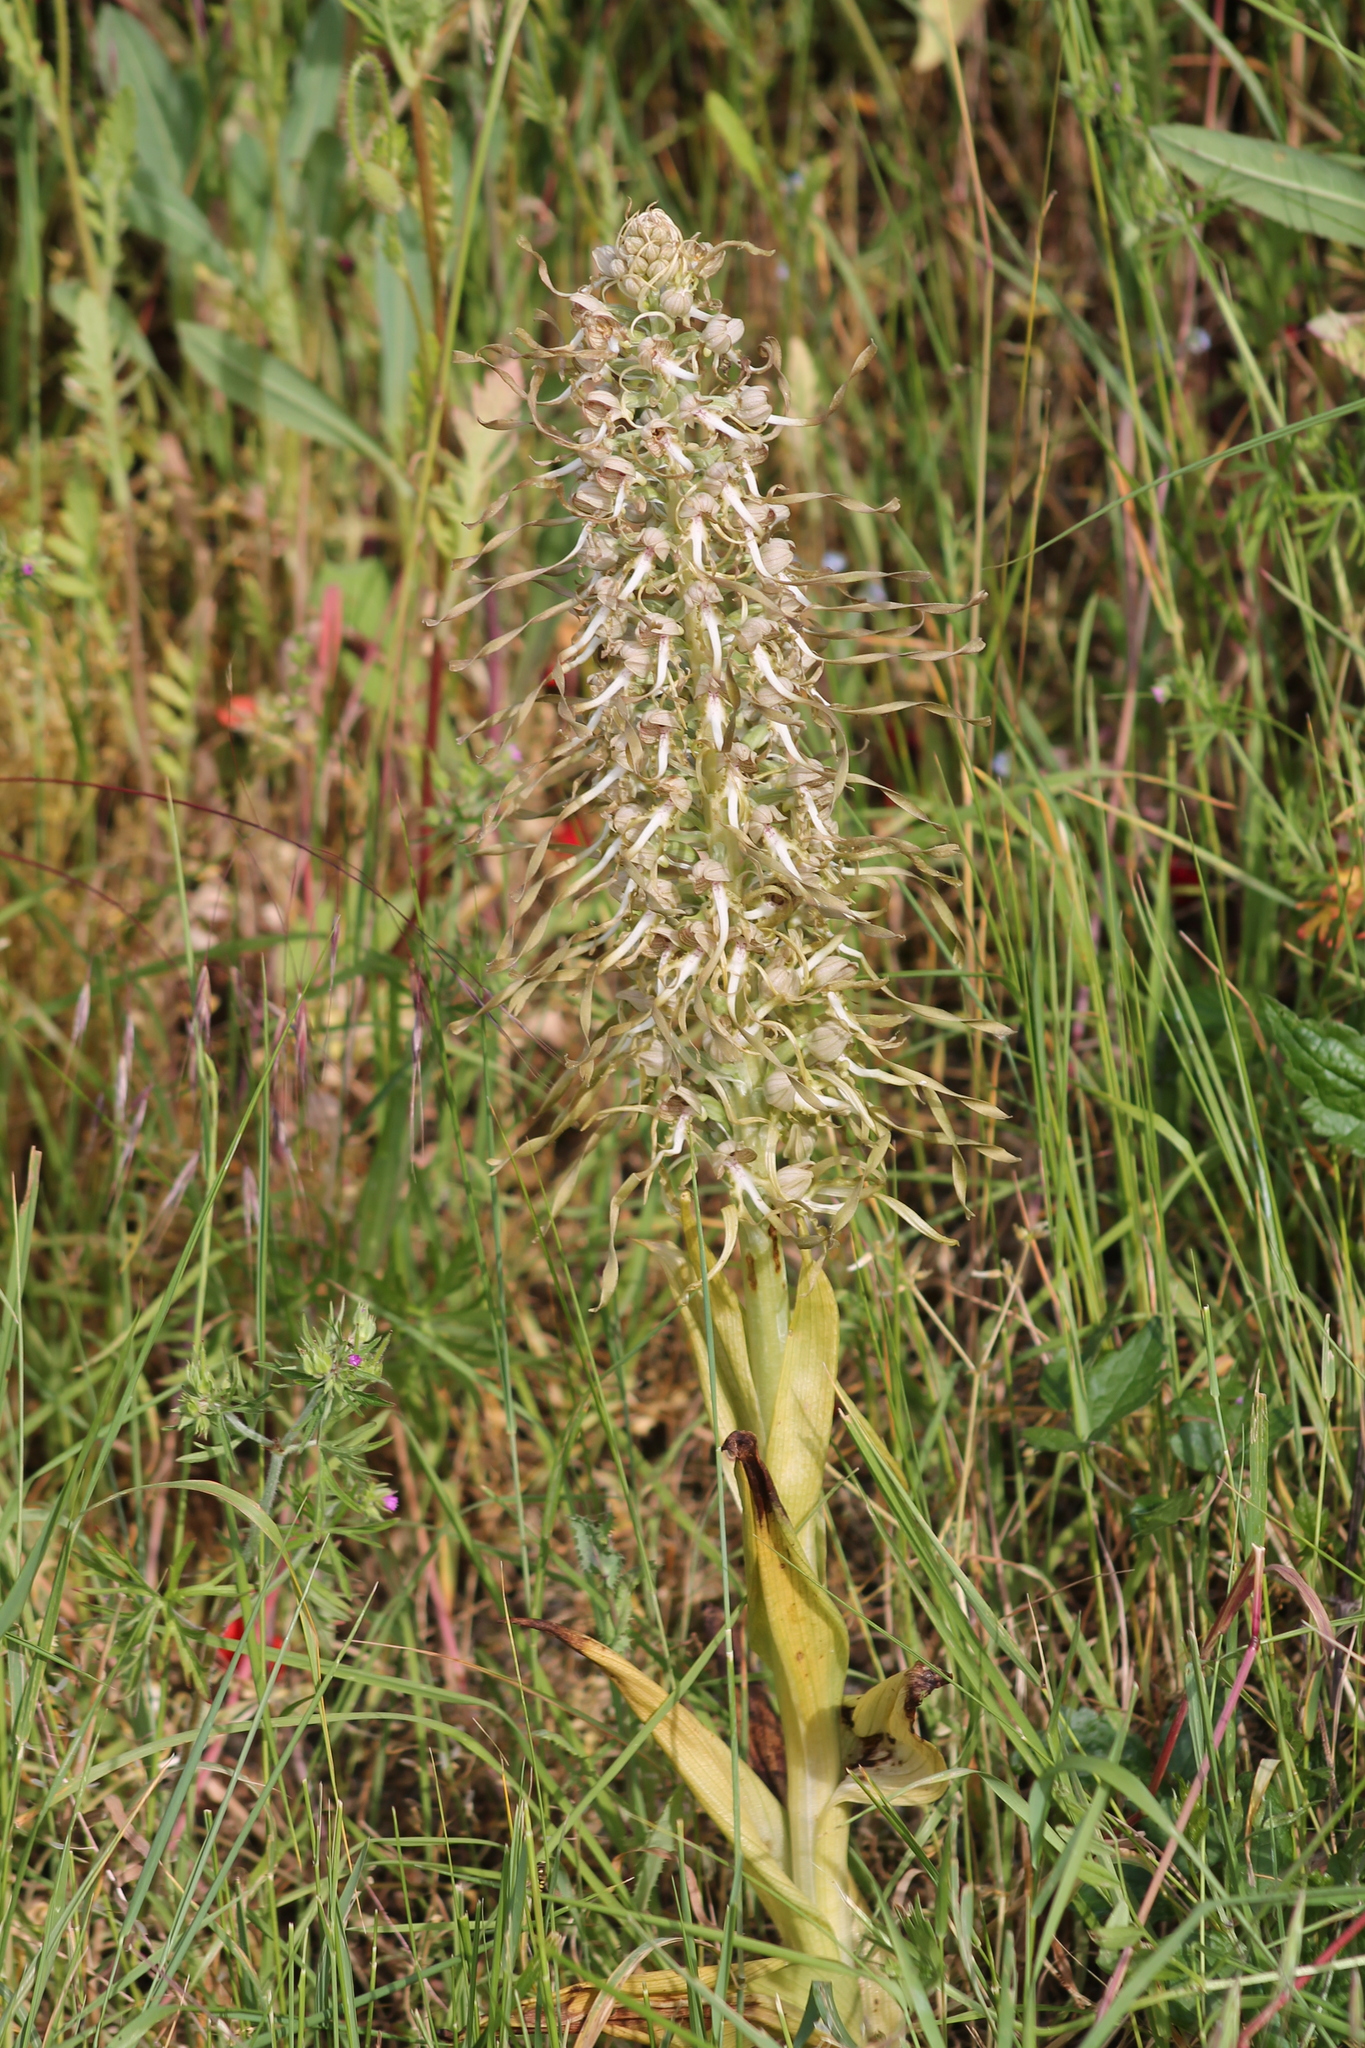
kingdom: Plantae
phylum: Tracheophyta
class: Liliopsida
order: Asparagales
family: Orchidaceae
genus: Himantoglossum
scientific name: Himantoglossum hircinum
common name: Lizard orchid
